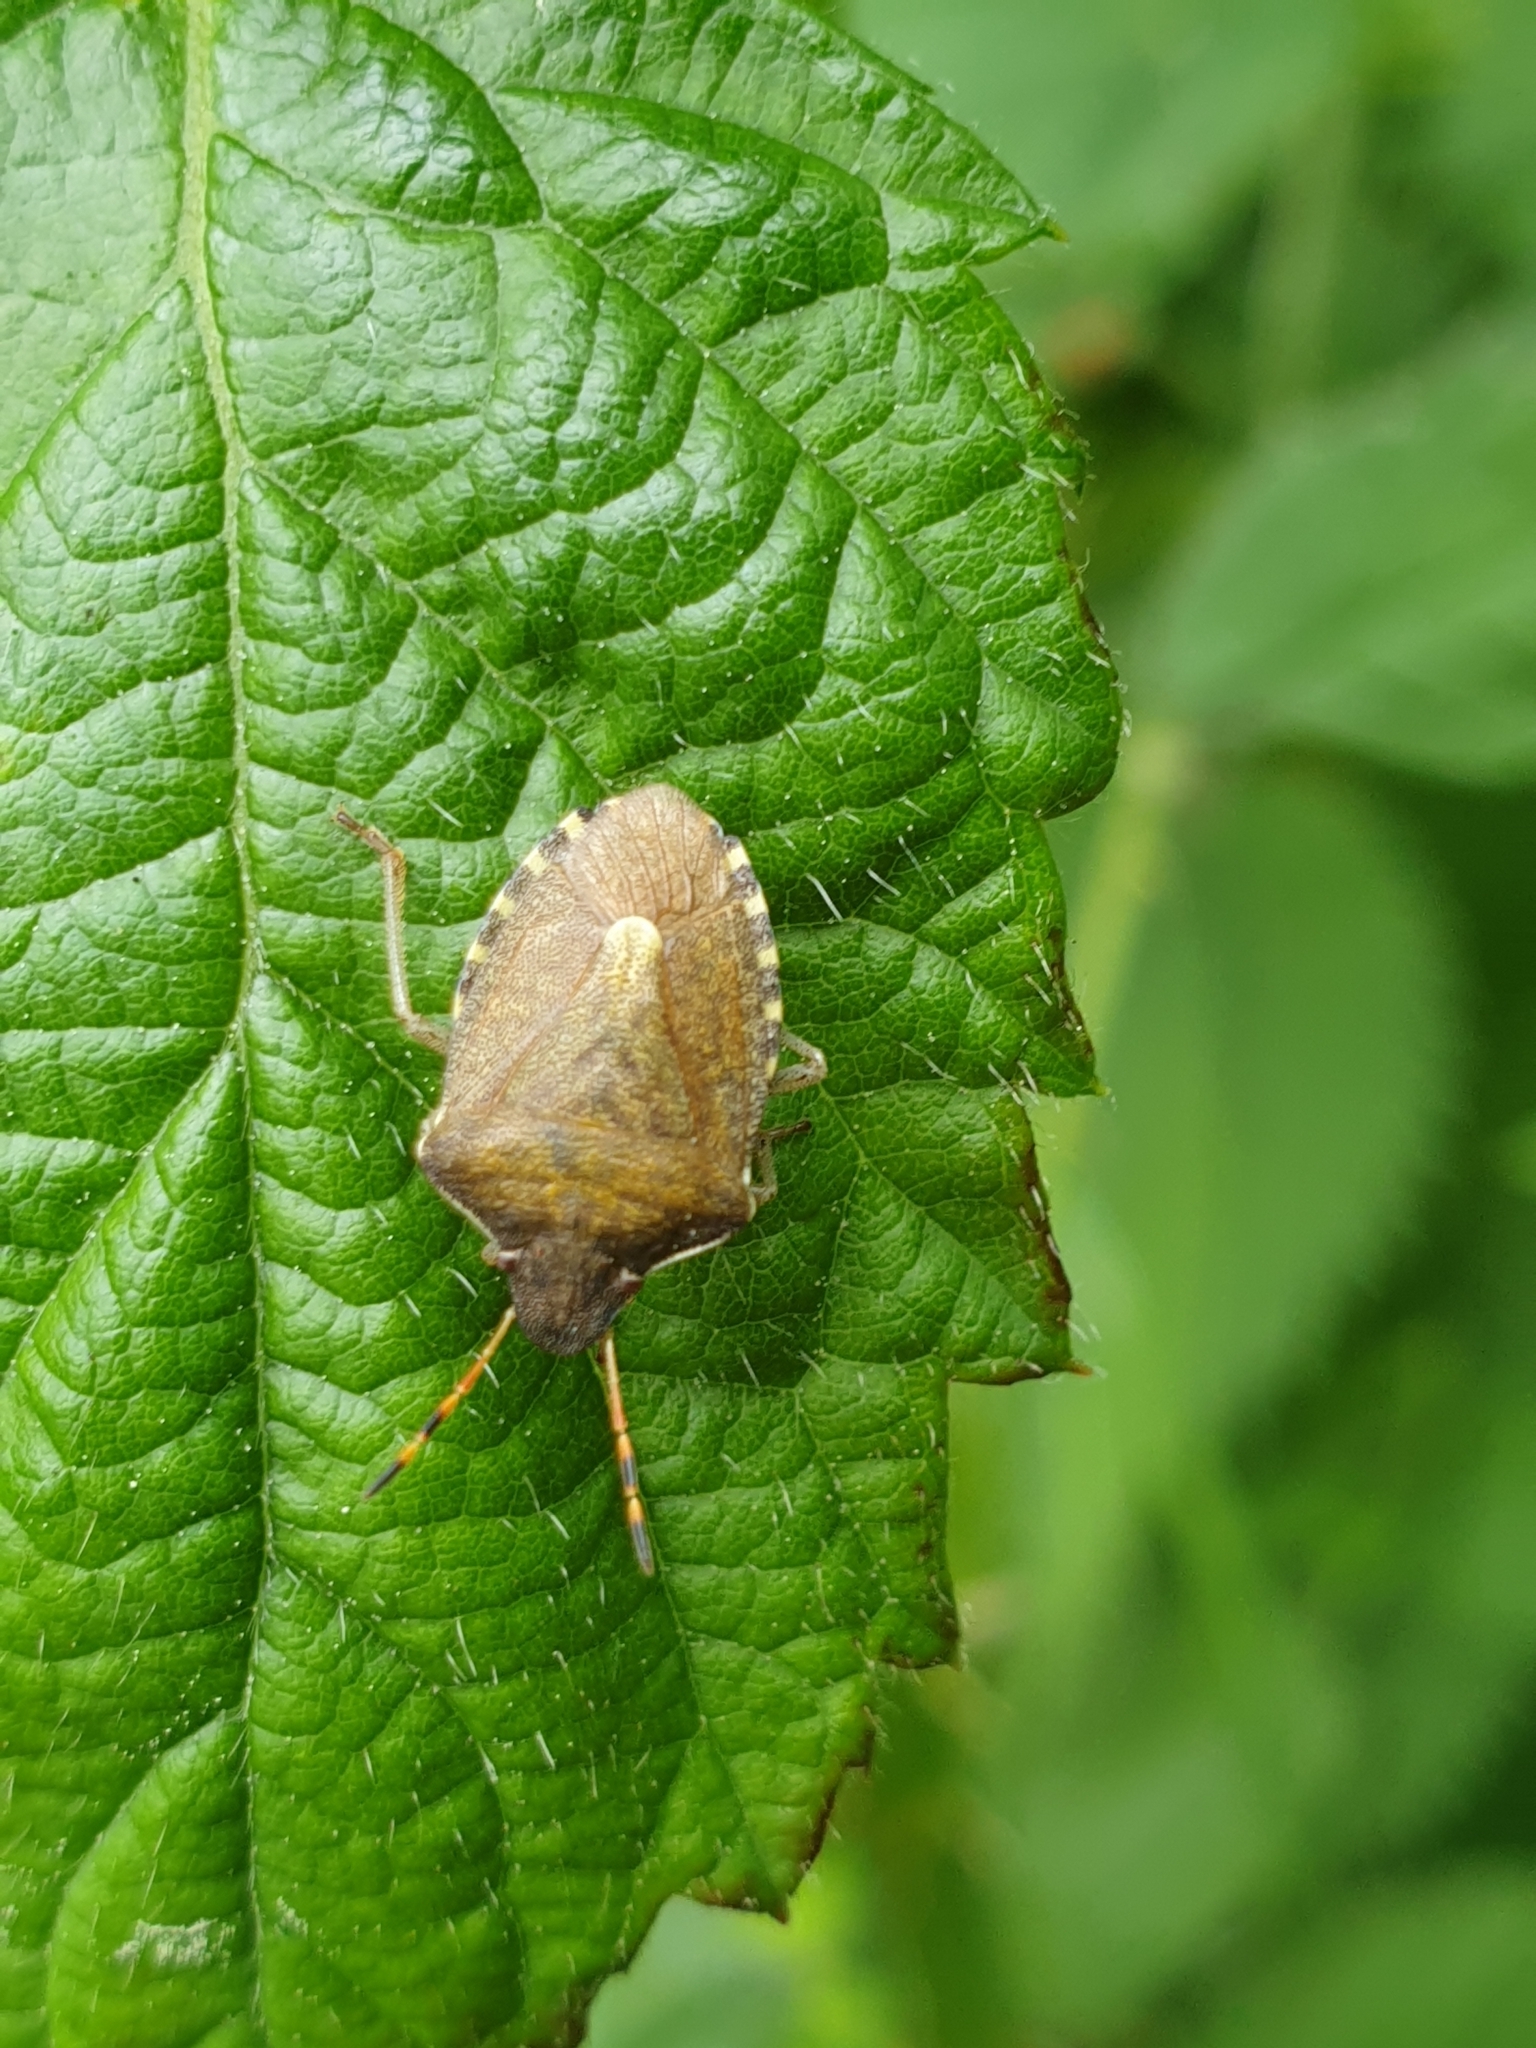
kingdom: Animalia
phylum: Arthropoda
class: Insecta
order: Hemiptera
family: Pentatomidae
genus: Holcostethus
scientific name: Holcostethus strictus
